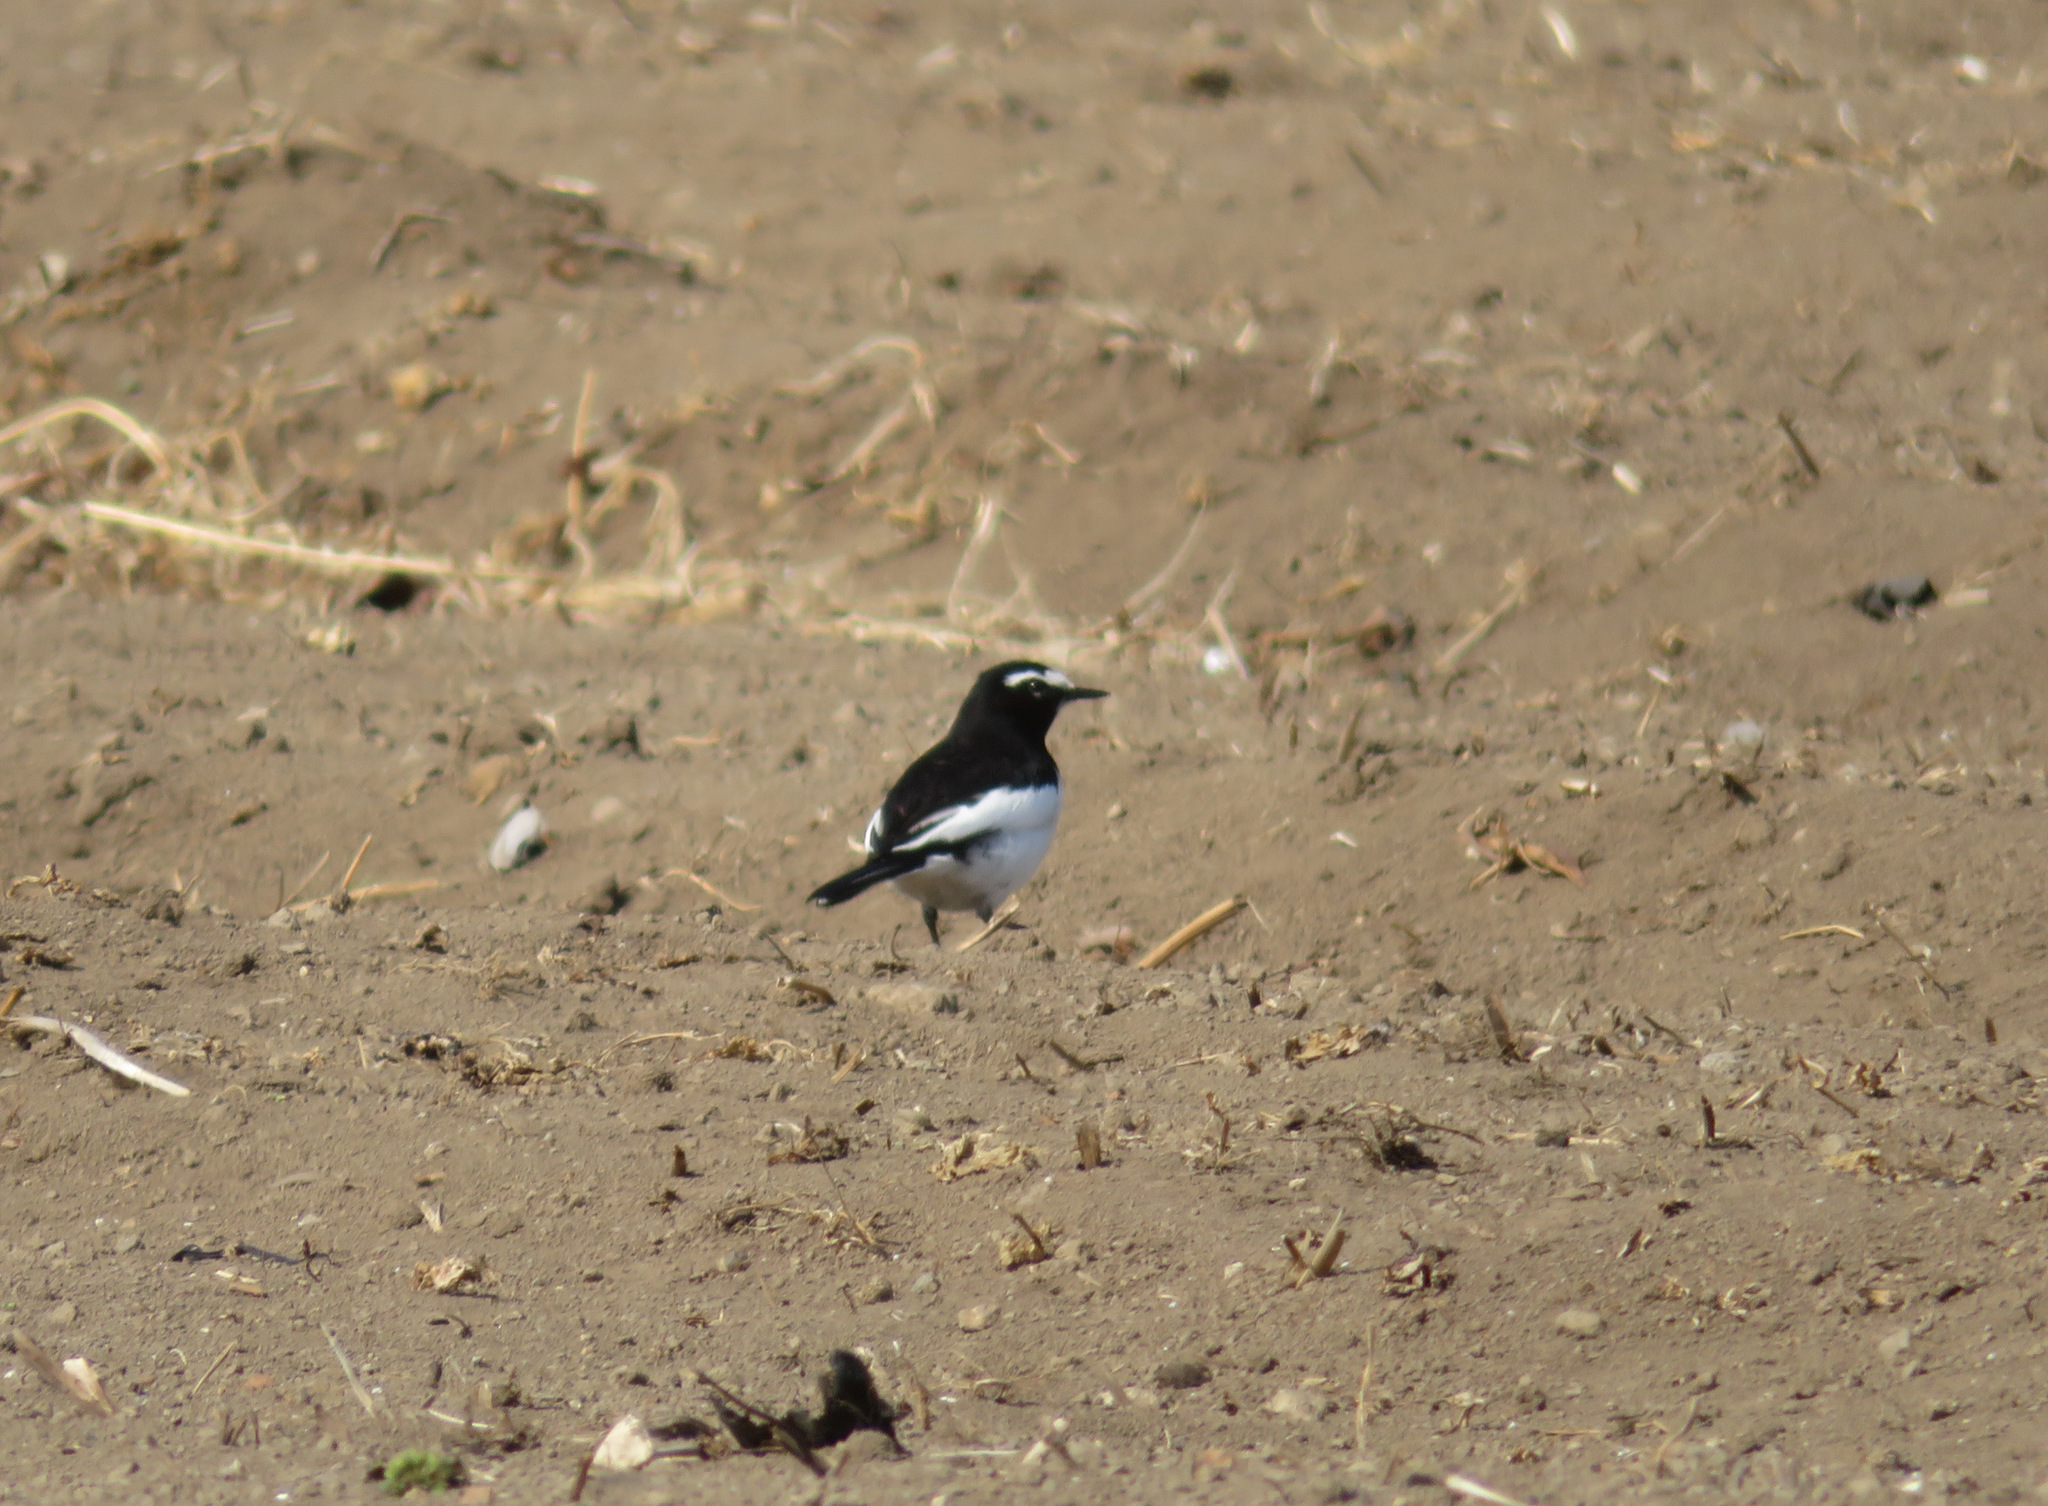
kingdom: Animalia
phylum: Chordata
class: Aves
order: Passeriformes
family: Motacillidae
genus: Motacilla
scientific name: Motacilla grandis
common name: Japanese wagtail
